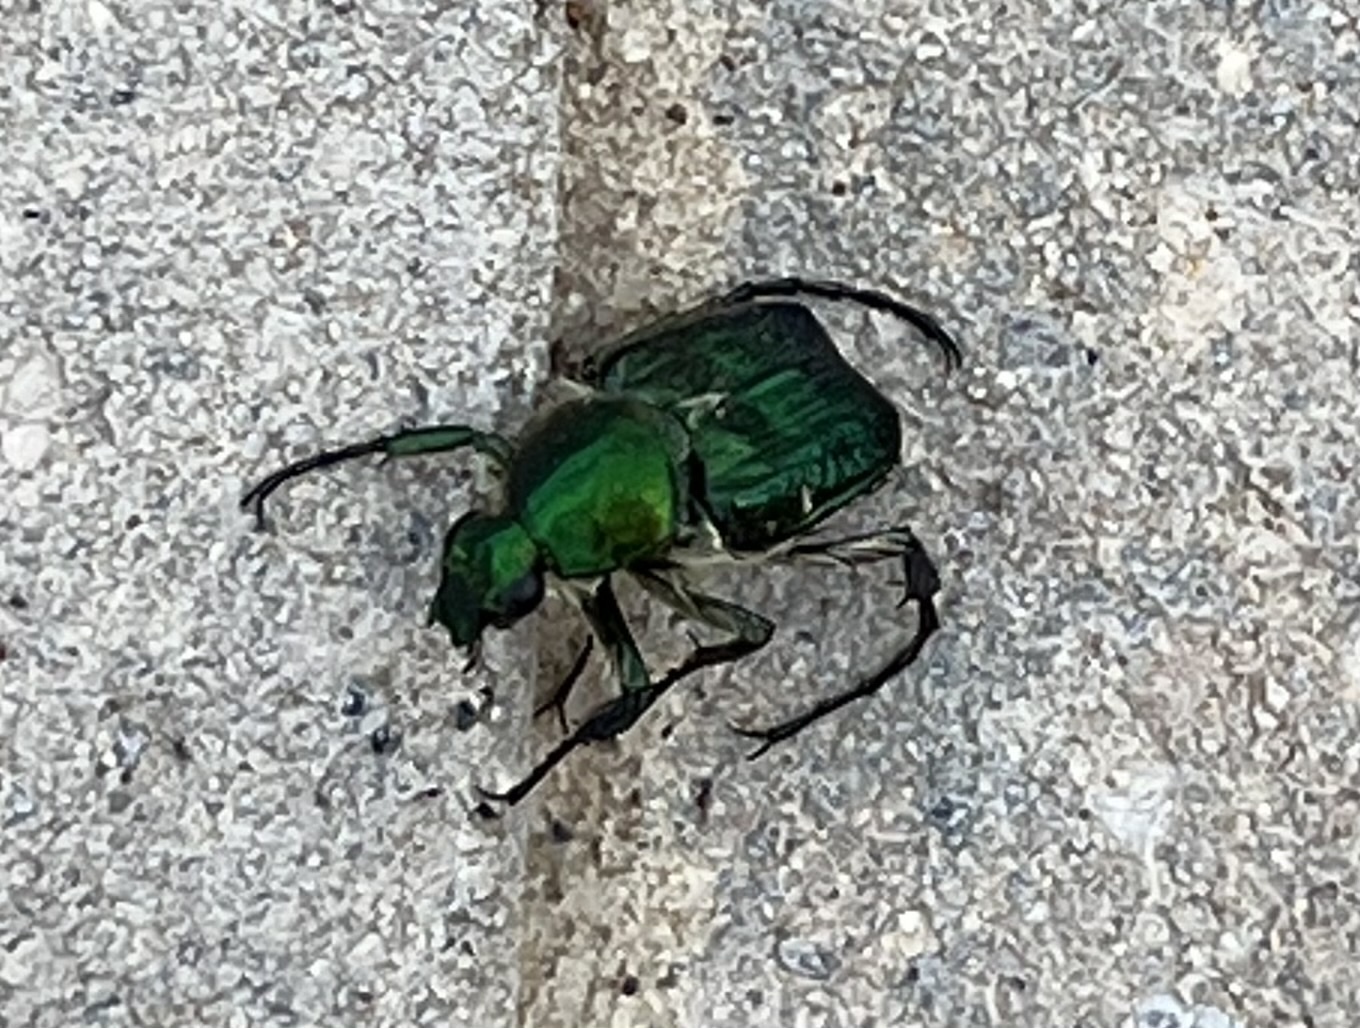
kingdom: Animalia
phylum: Arthropoda
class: Insecta
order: Coleoptera
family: Scarabaeidae
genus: Trichiotinus
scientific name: Trichiotinus lunulatus
